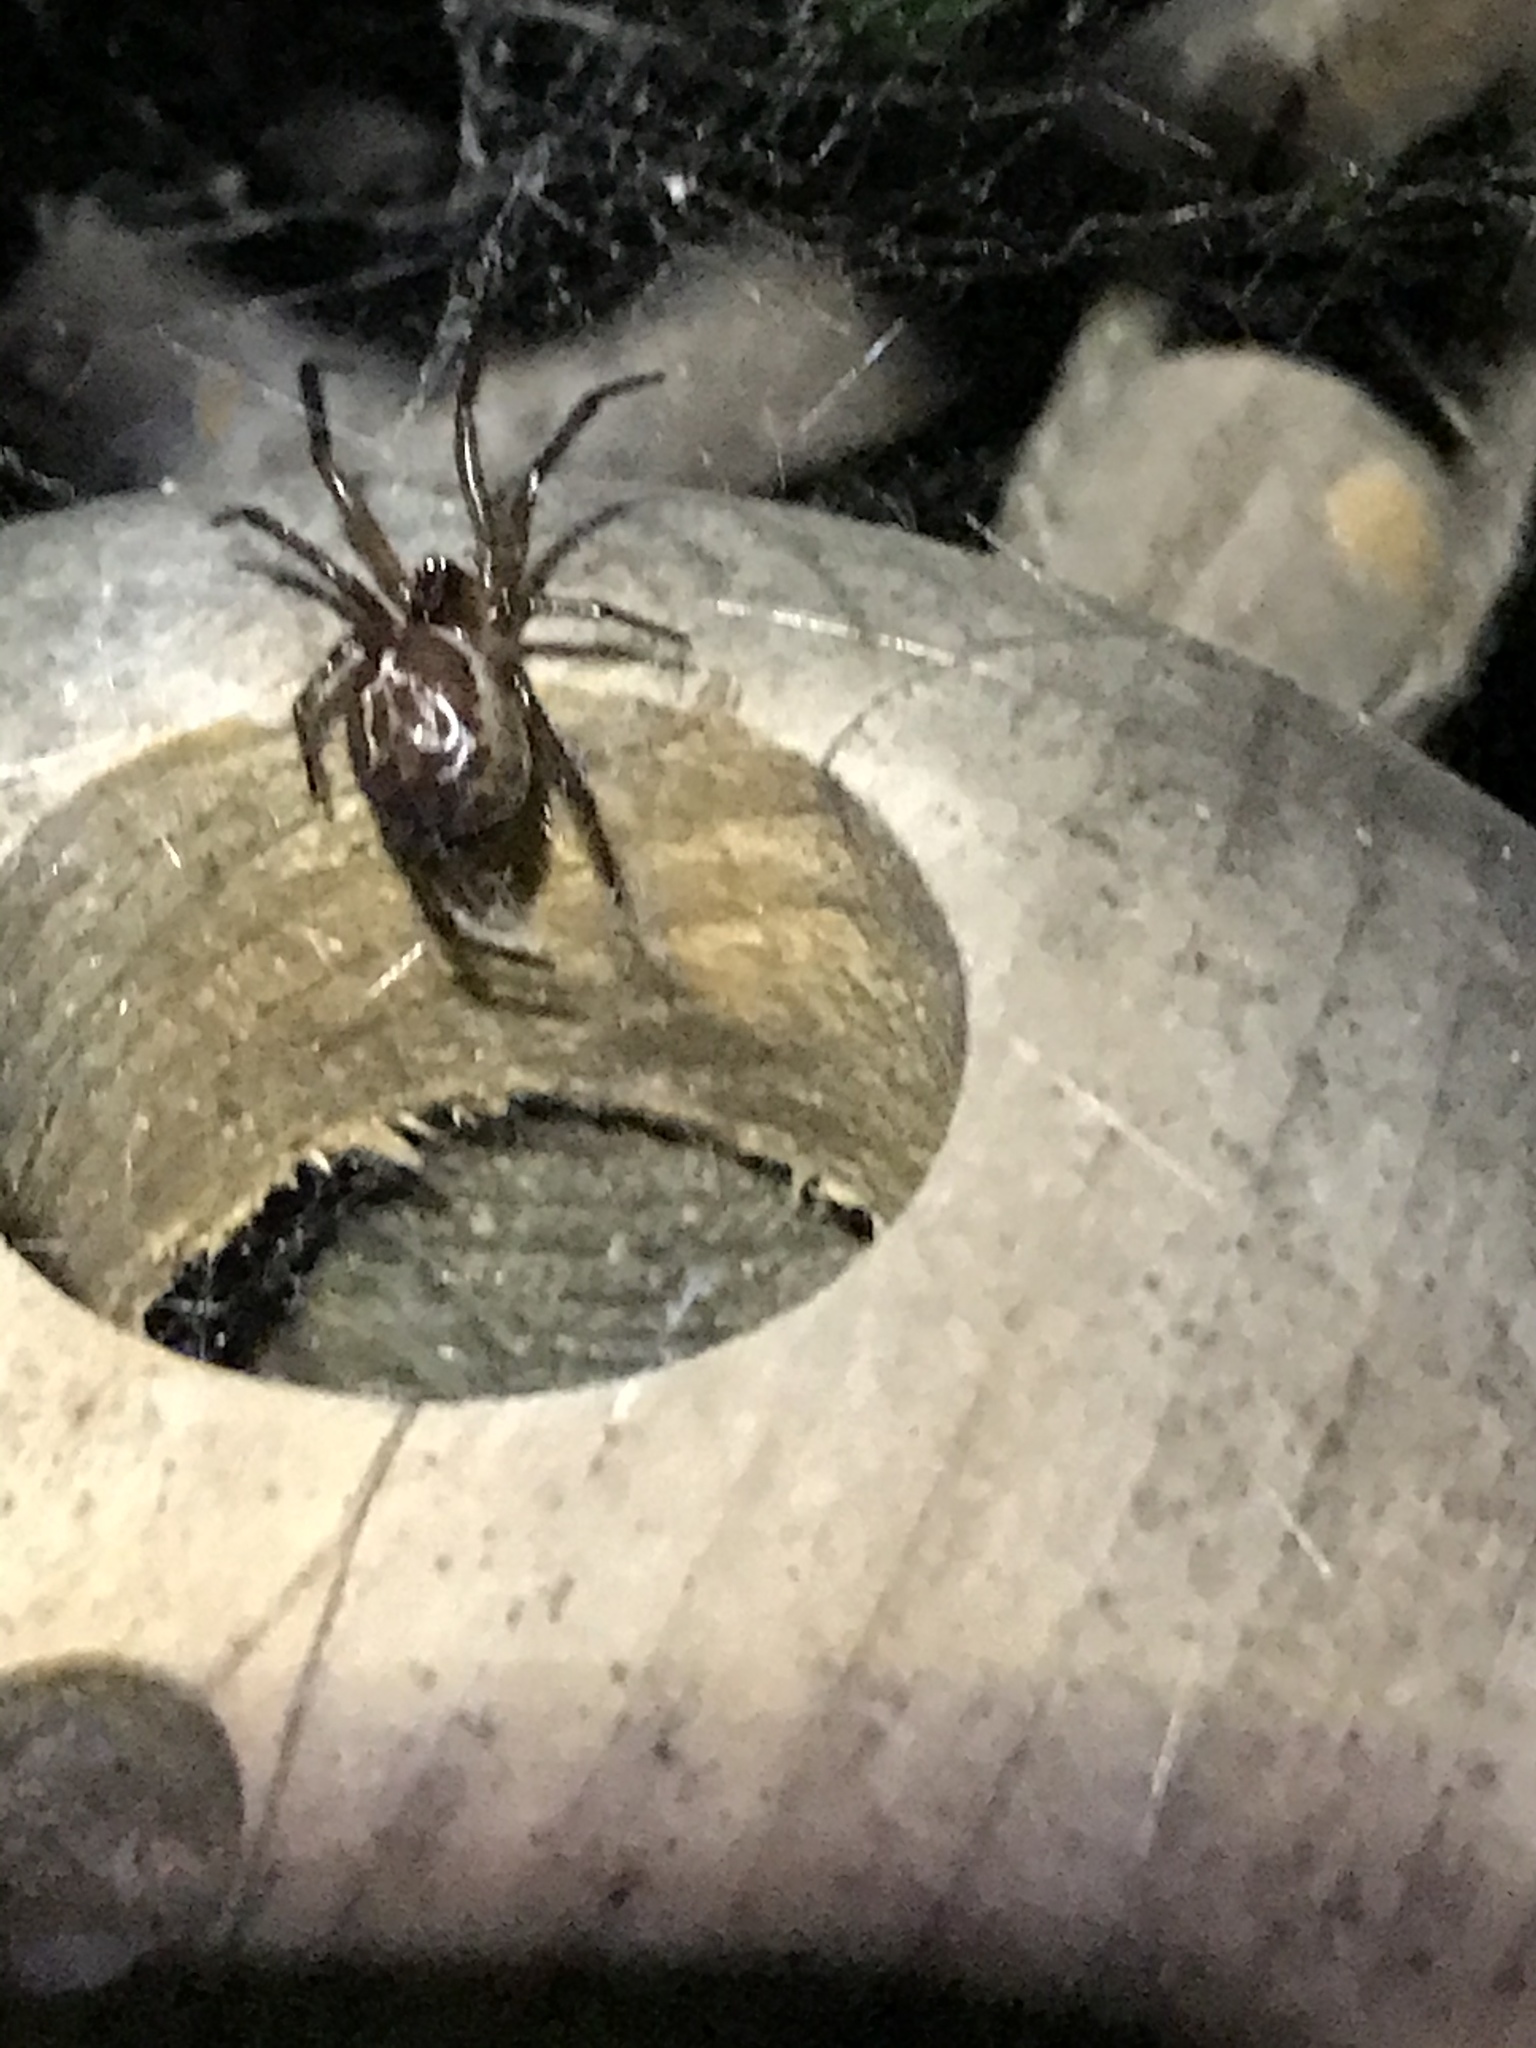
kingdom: Animalia
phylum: Arthropoda
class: Arachnida
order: Araneae
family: Theridiidae
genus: Steatoda
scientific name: Steatoda nobilis
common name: Cobweb weaver
